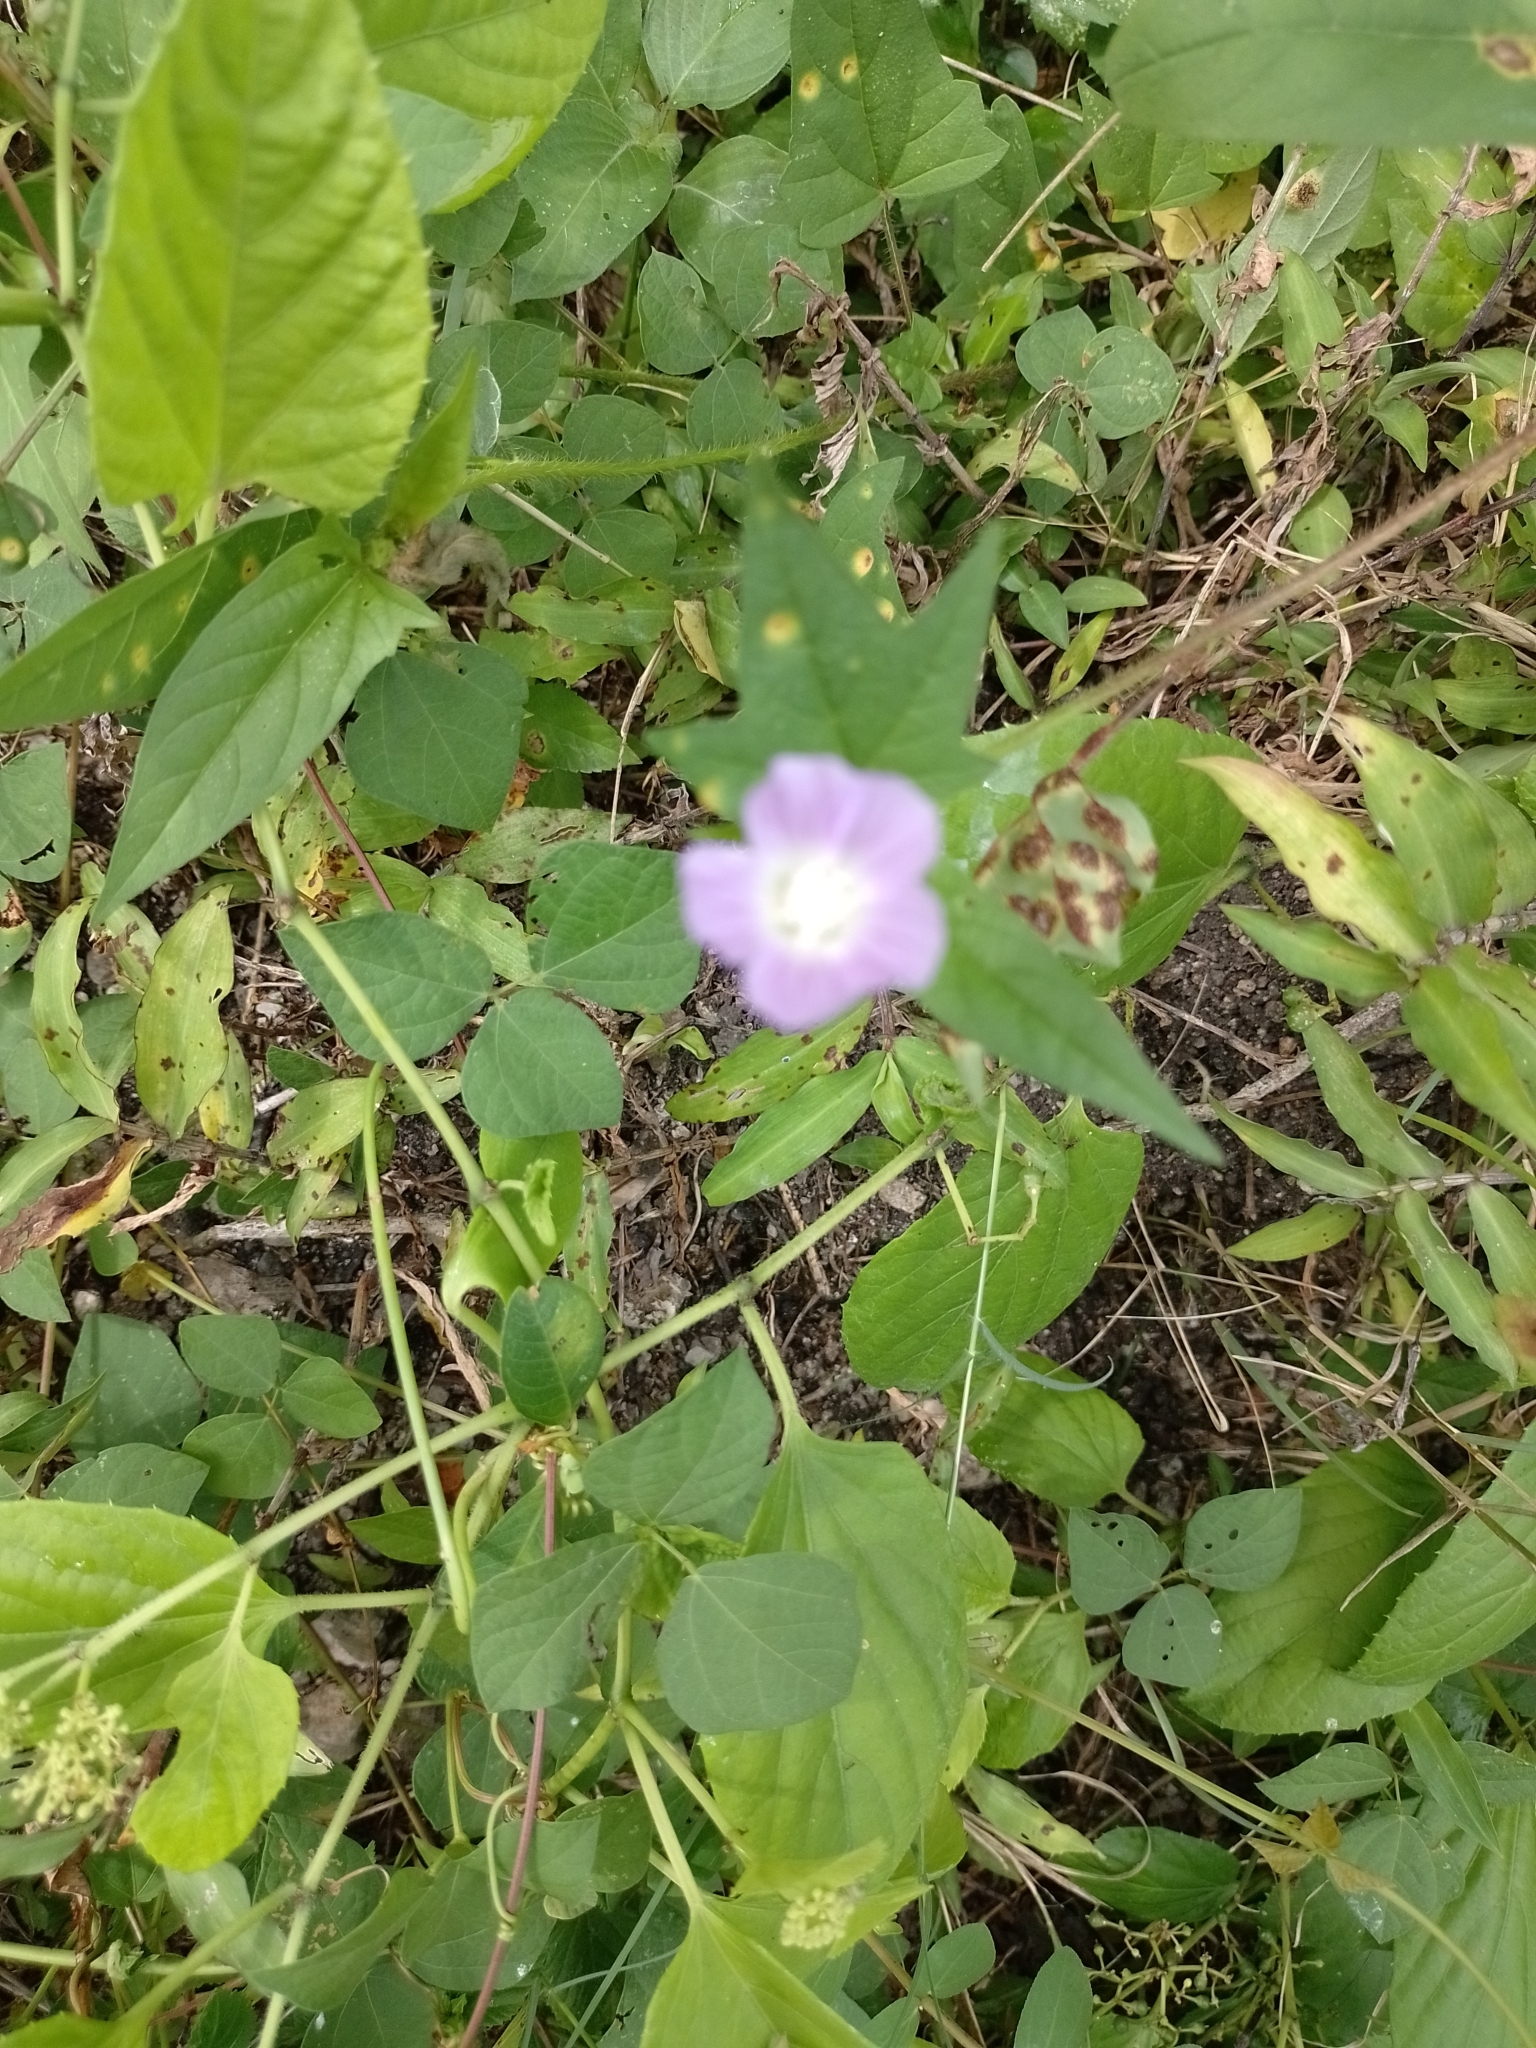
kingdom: Plantae
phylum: Tracheophyta
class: Magnoliopsida
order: Malvales
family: Malvaceae
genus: Anoda
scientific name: Anoda cristata
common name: Spurred anoda
